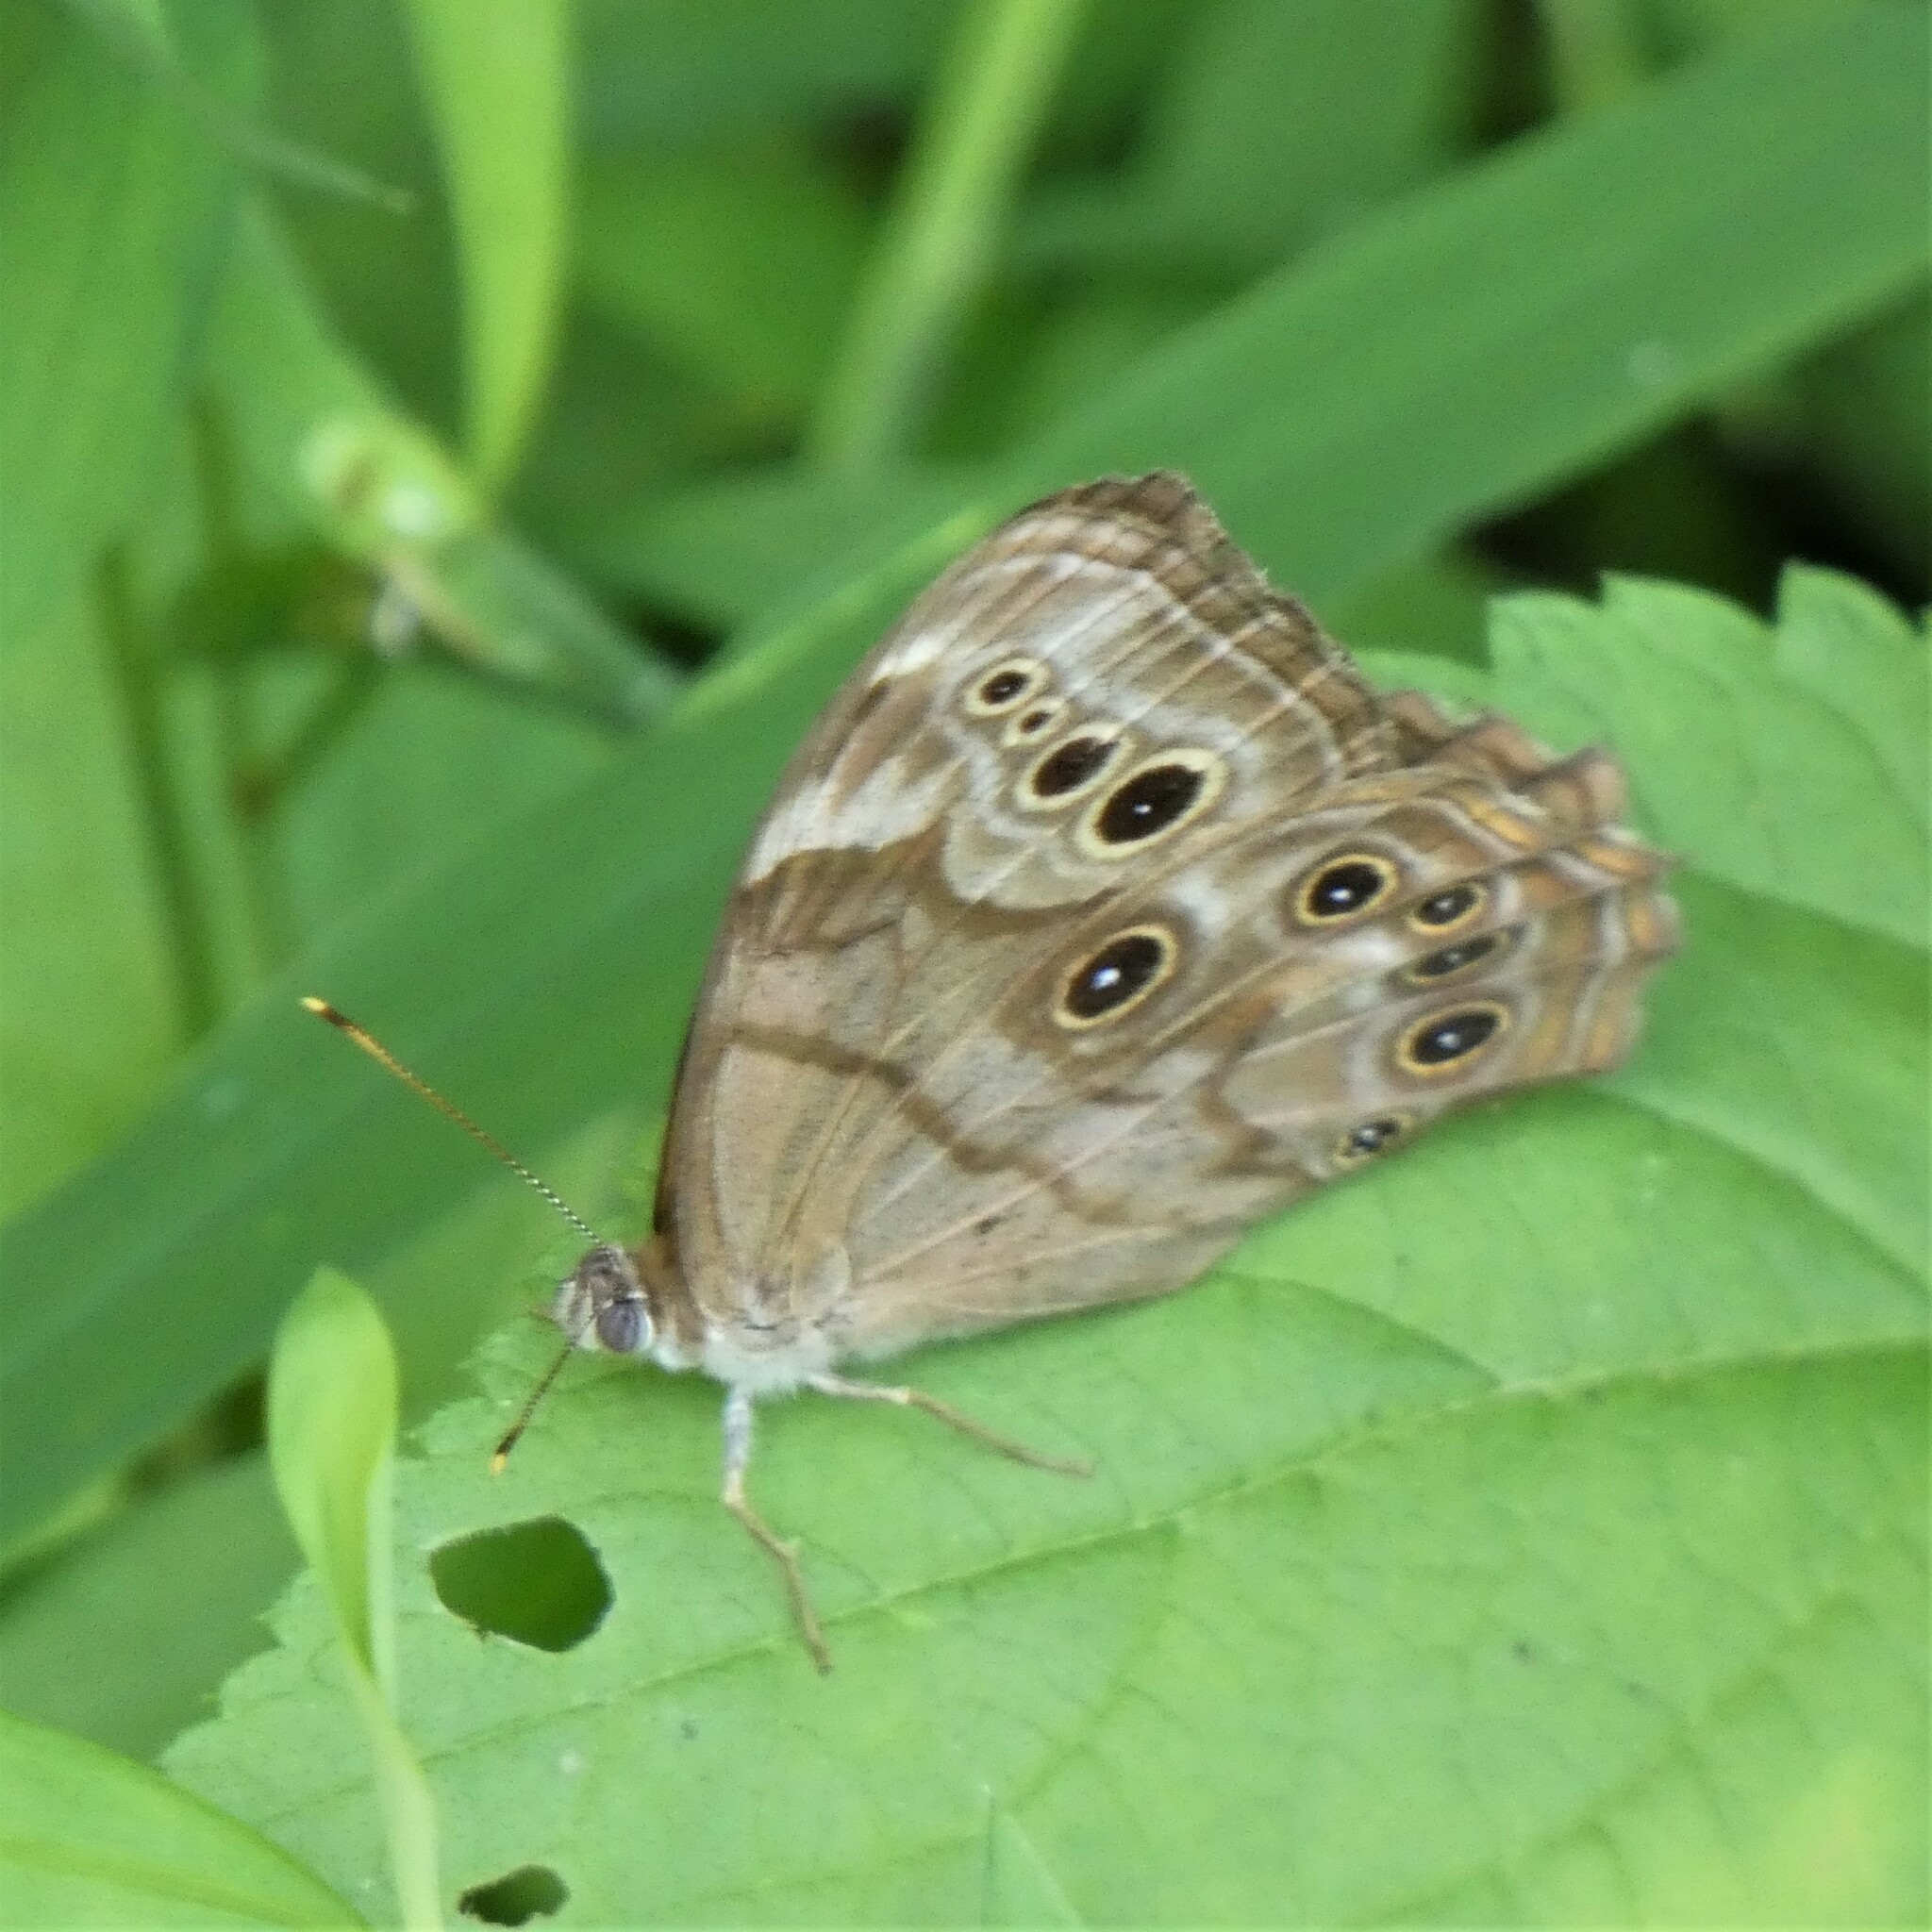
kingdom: Animalia
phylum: Arthropoda
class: Insecta
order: Lepidoptera
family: Nymphalidae
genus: Lethe
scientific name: Lethe anthedon
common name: Northern pearly-eye
